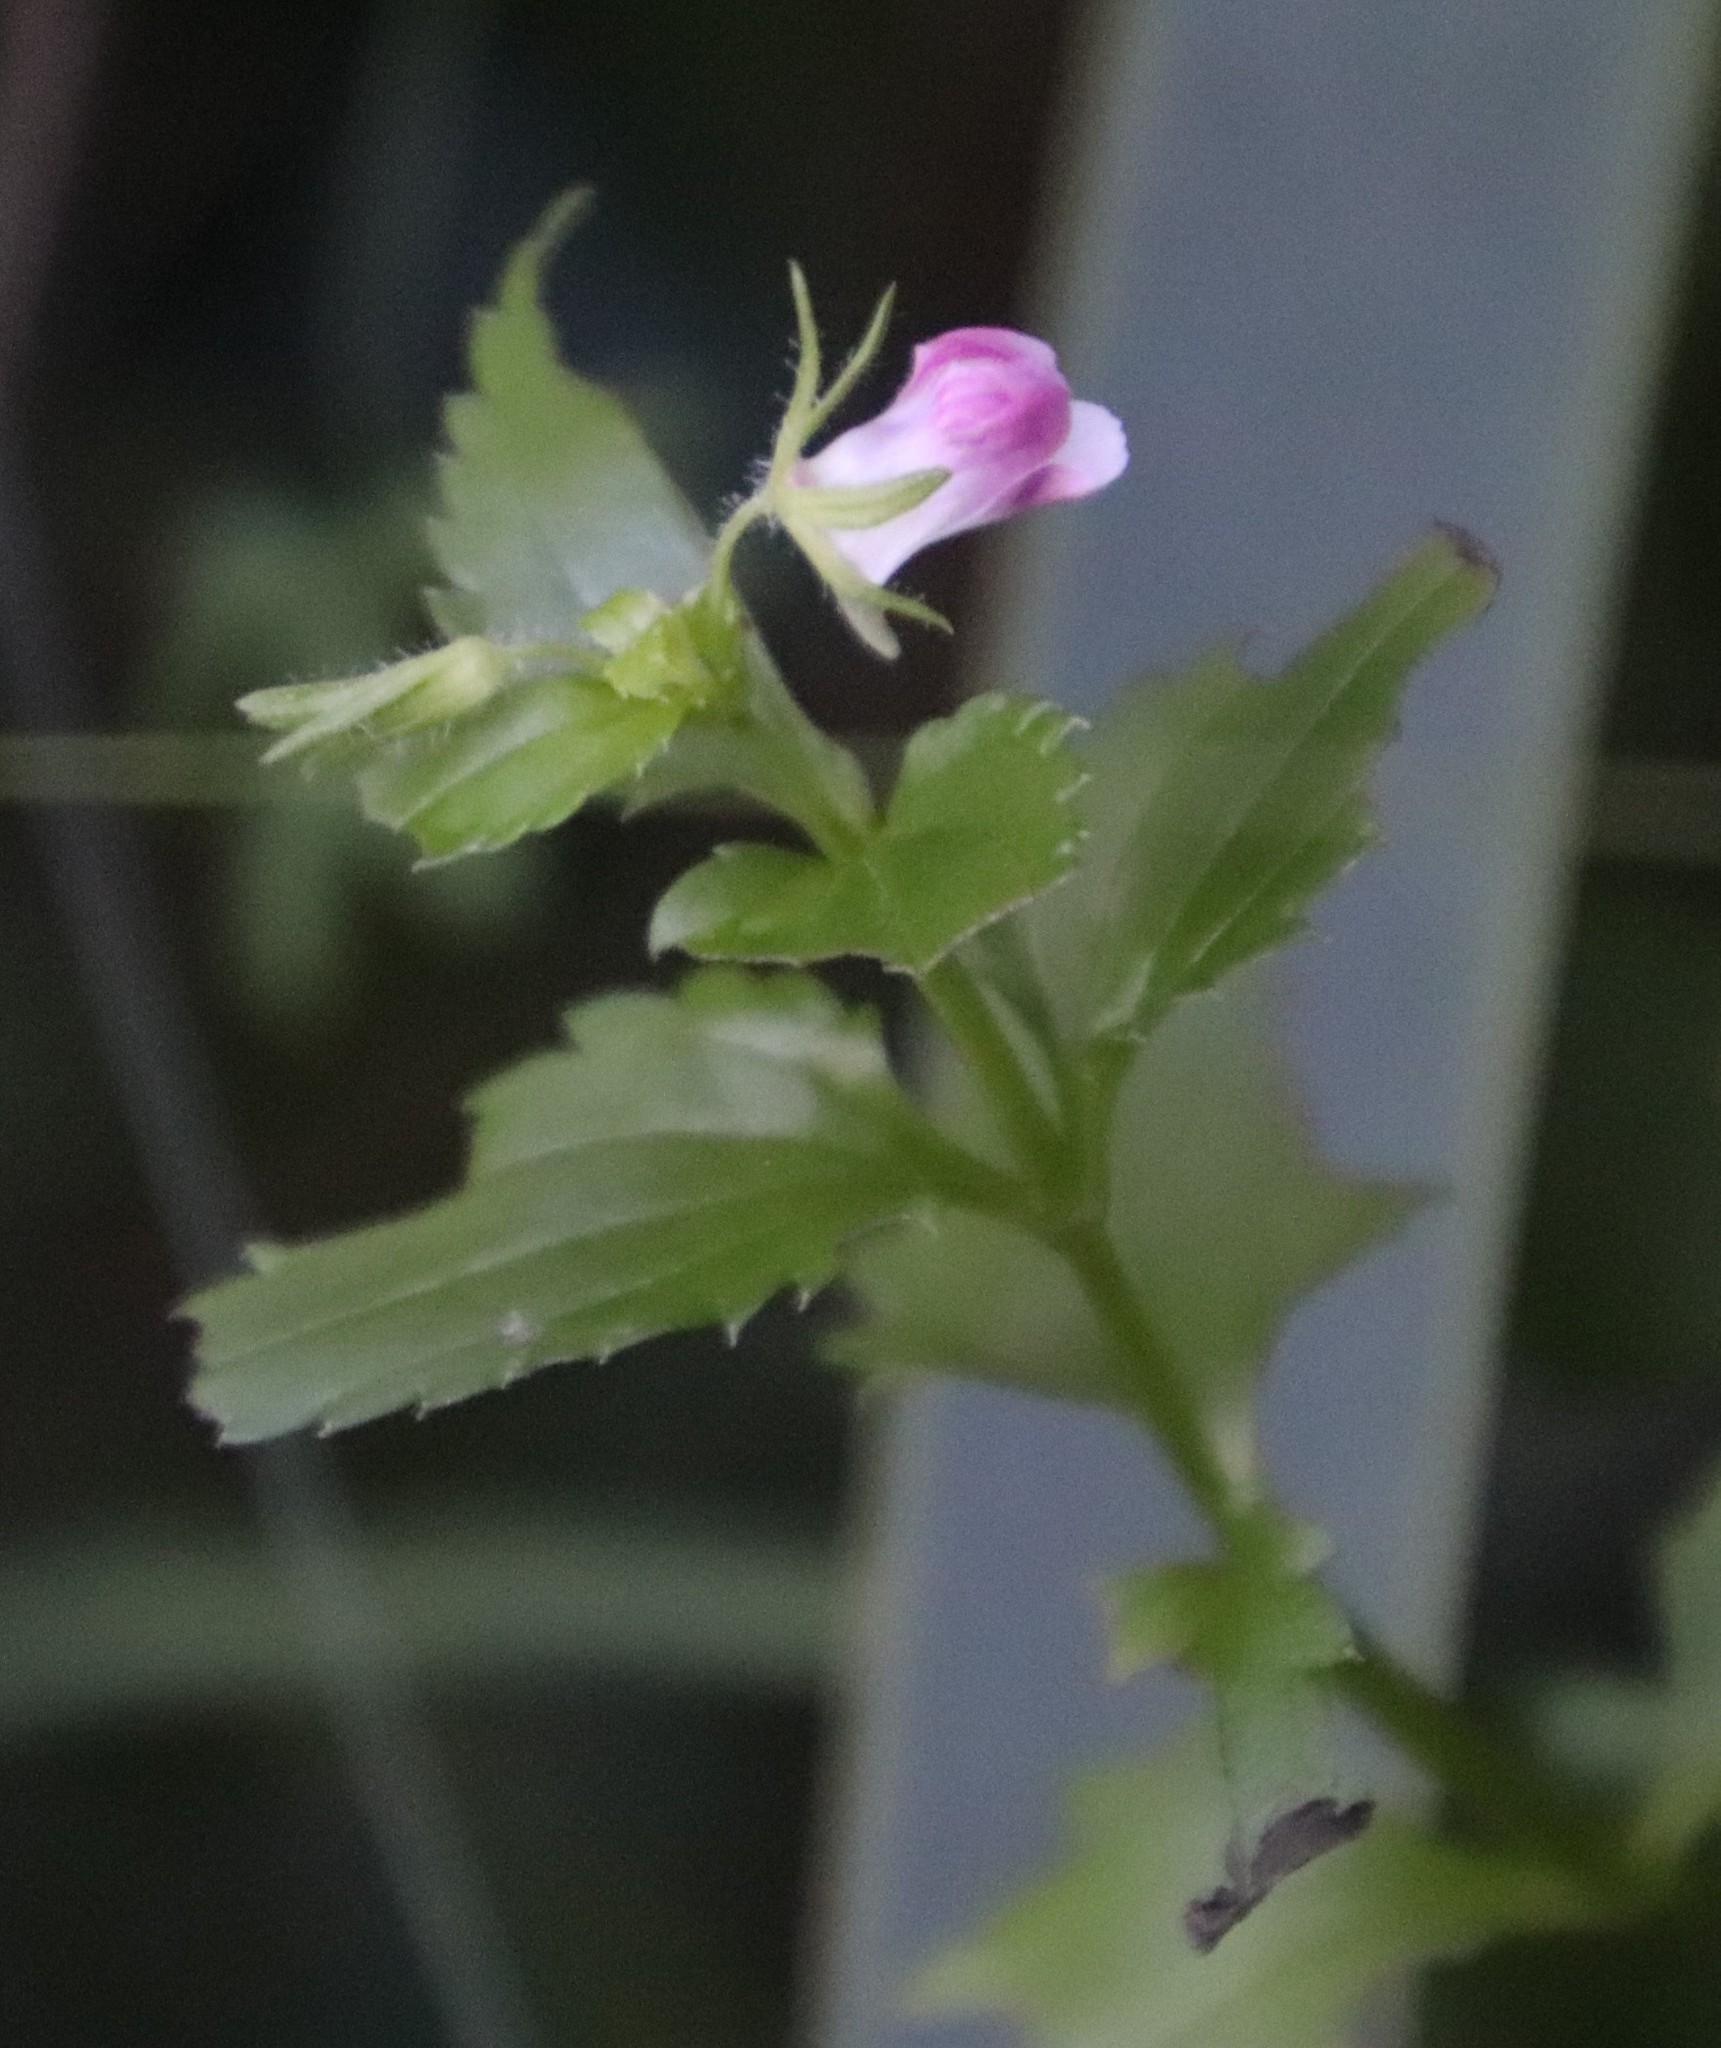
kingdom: Plantae
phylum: Tracheophyta
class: Magnoliopsida
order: Lamiales
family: Scrophulariaceae
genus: Nemesia
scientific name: Nemesia macrocarpa
